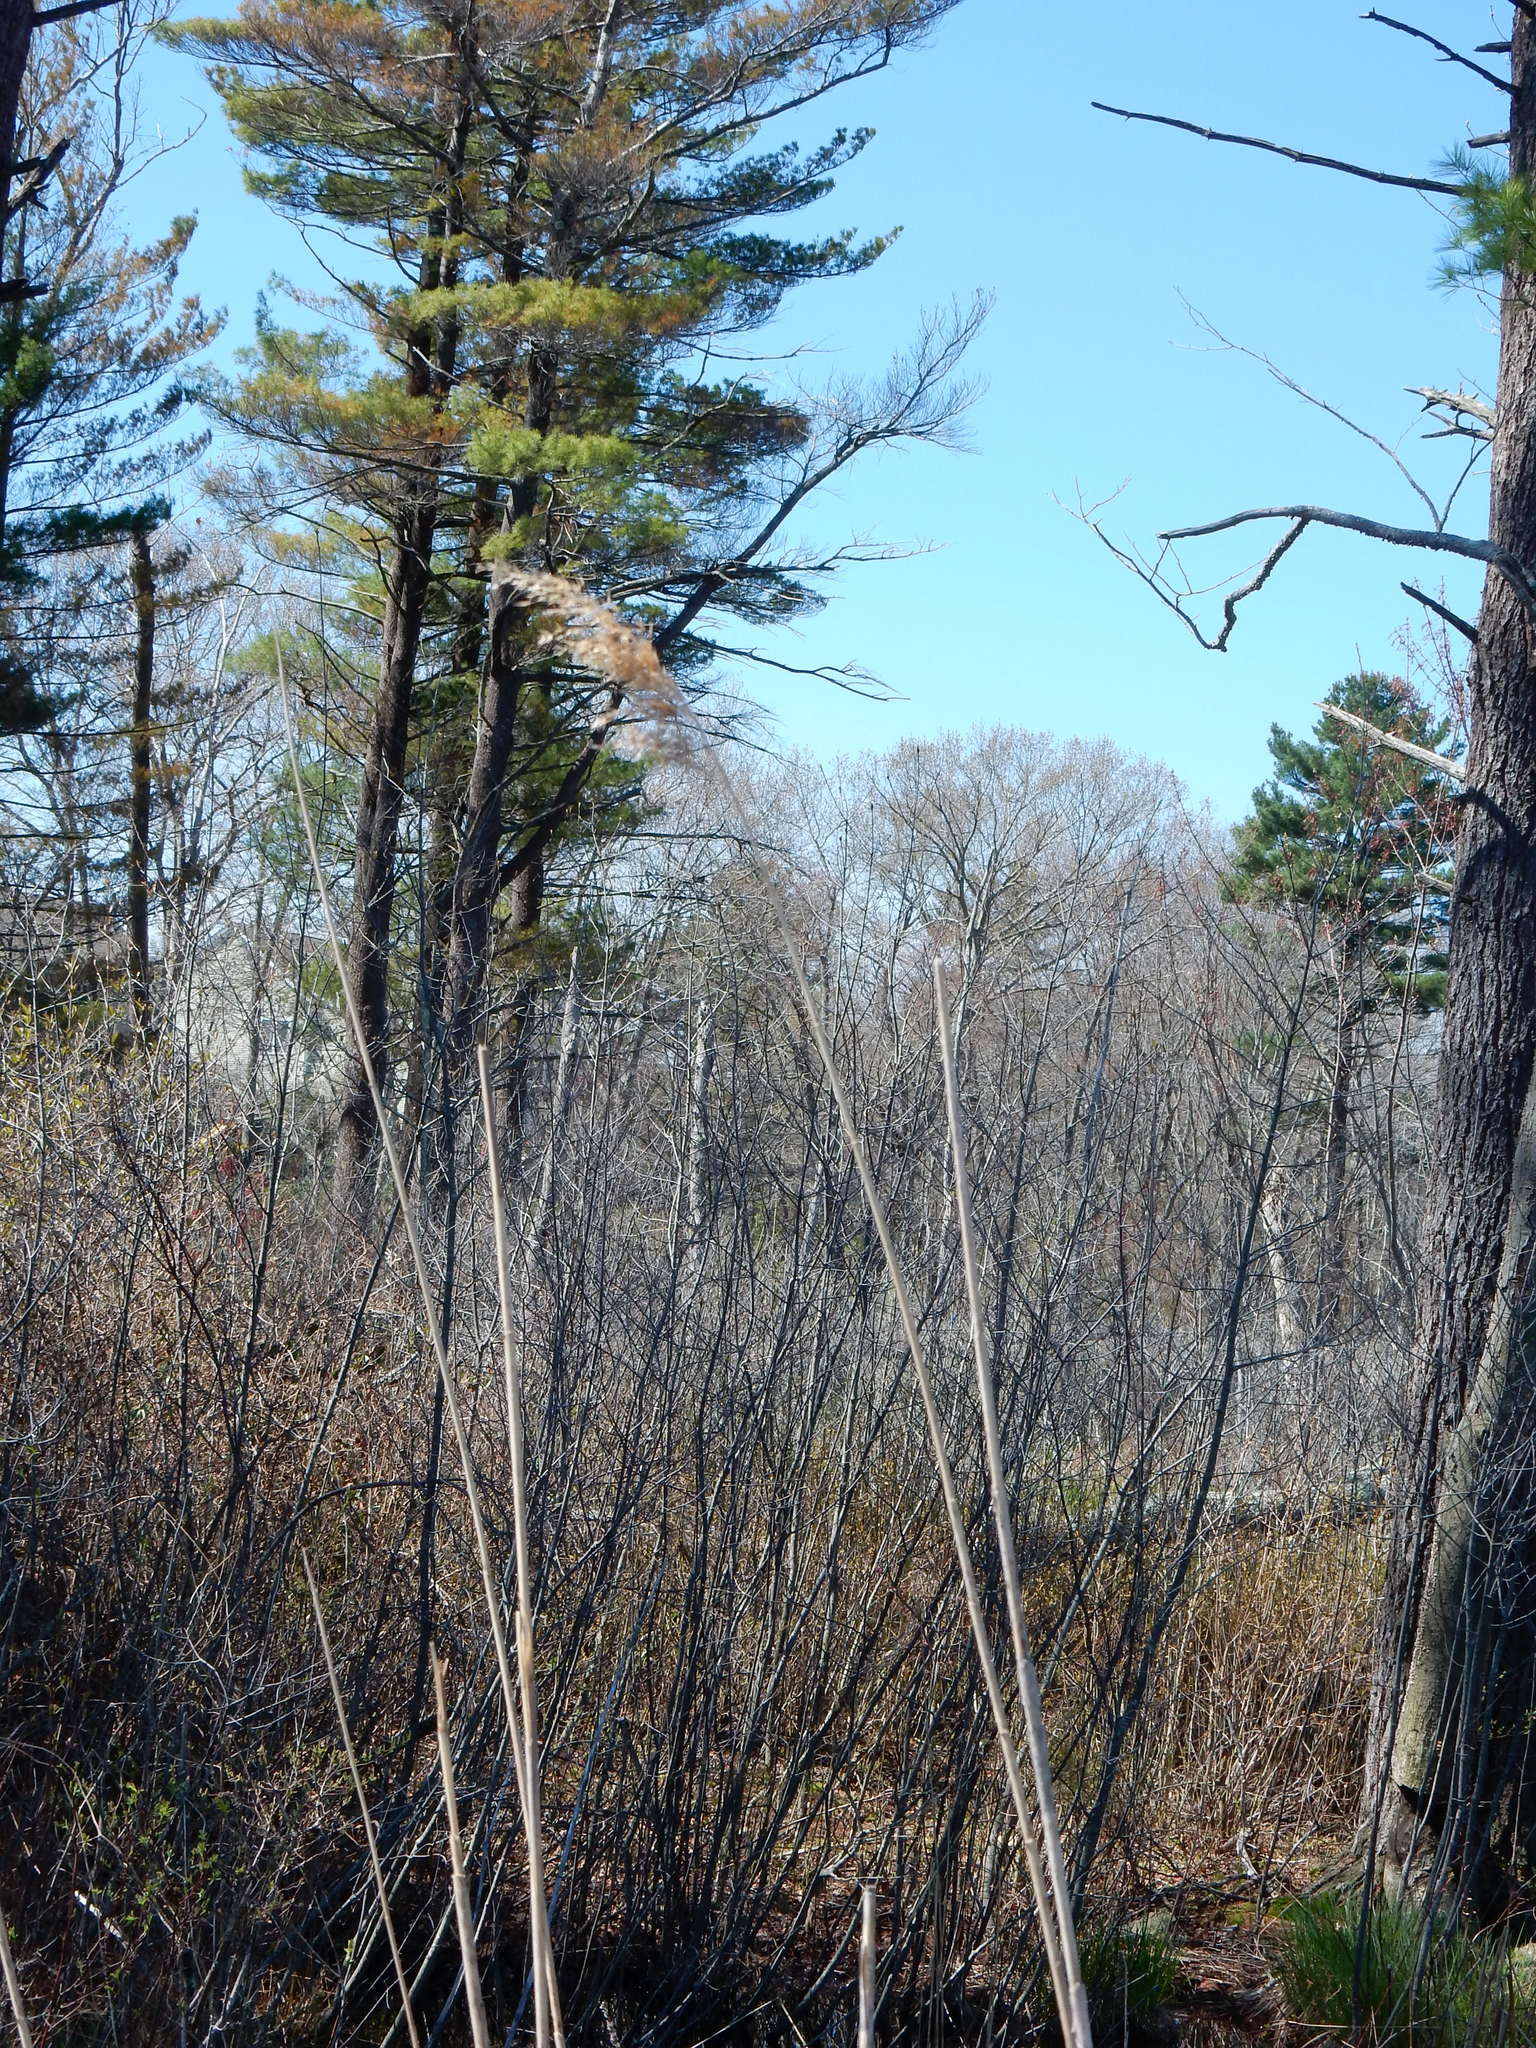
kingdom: Plantae
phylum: Tracheophyta
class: Liliopsida
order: Poales
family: Poaceae
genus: Phragmites
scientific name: Phragmites australis
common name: Common reed
